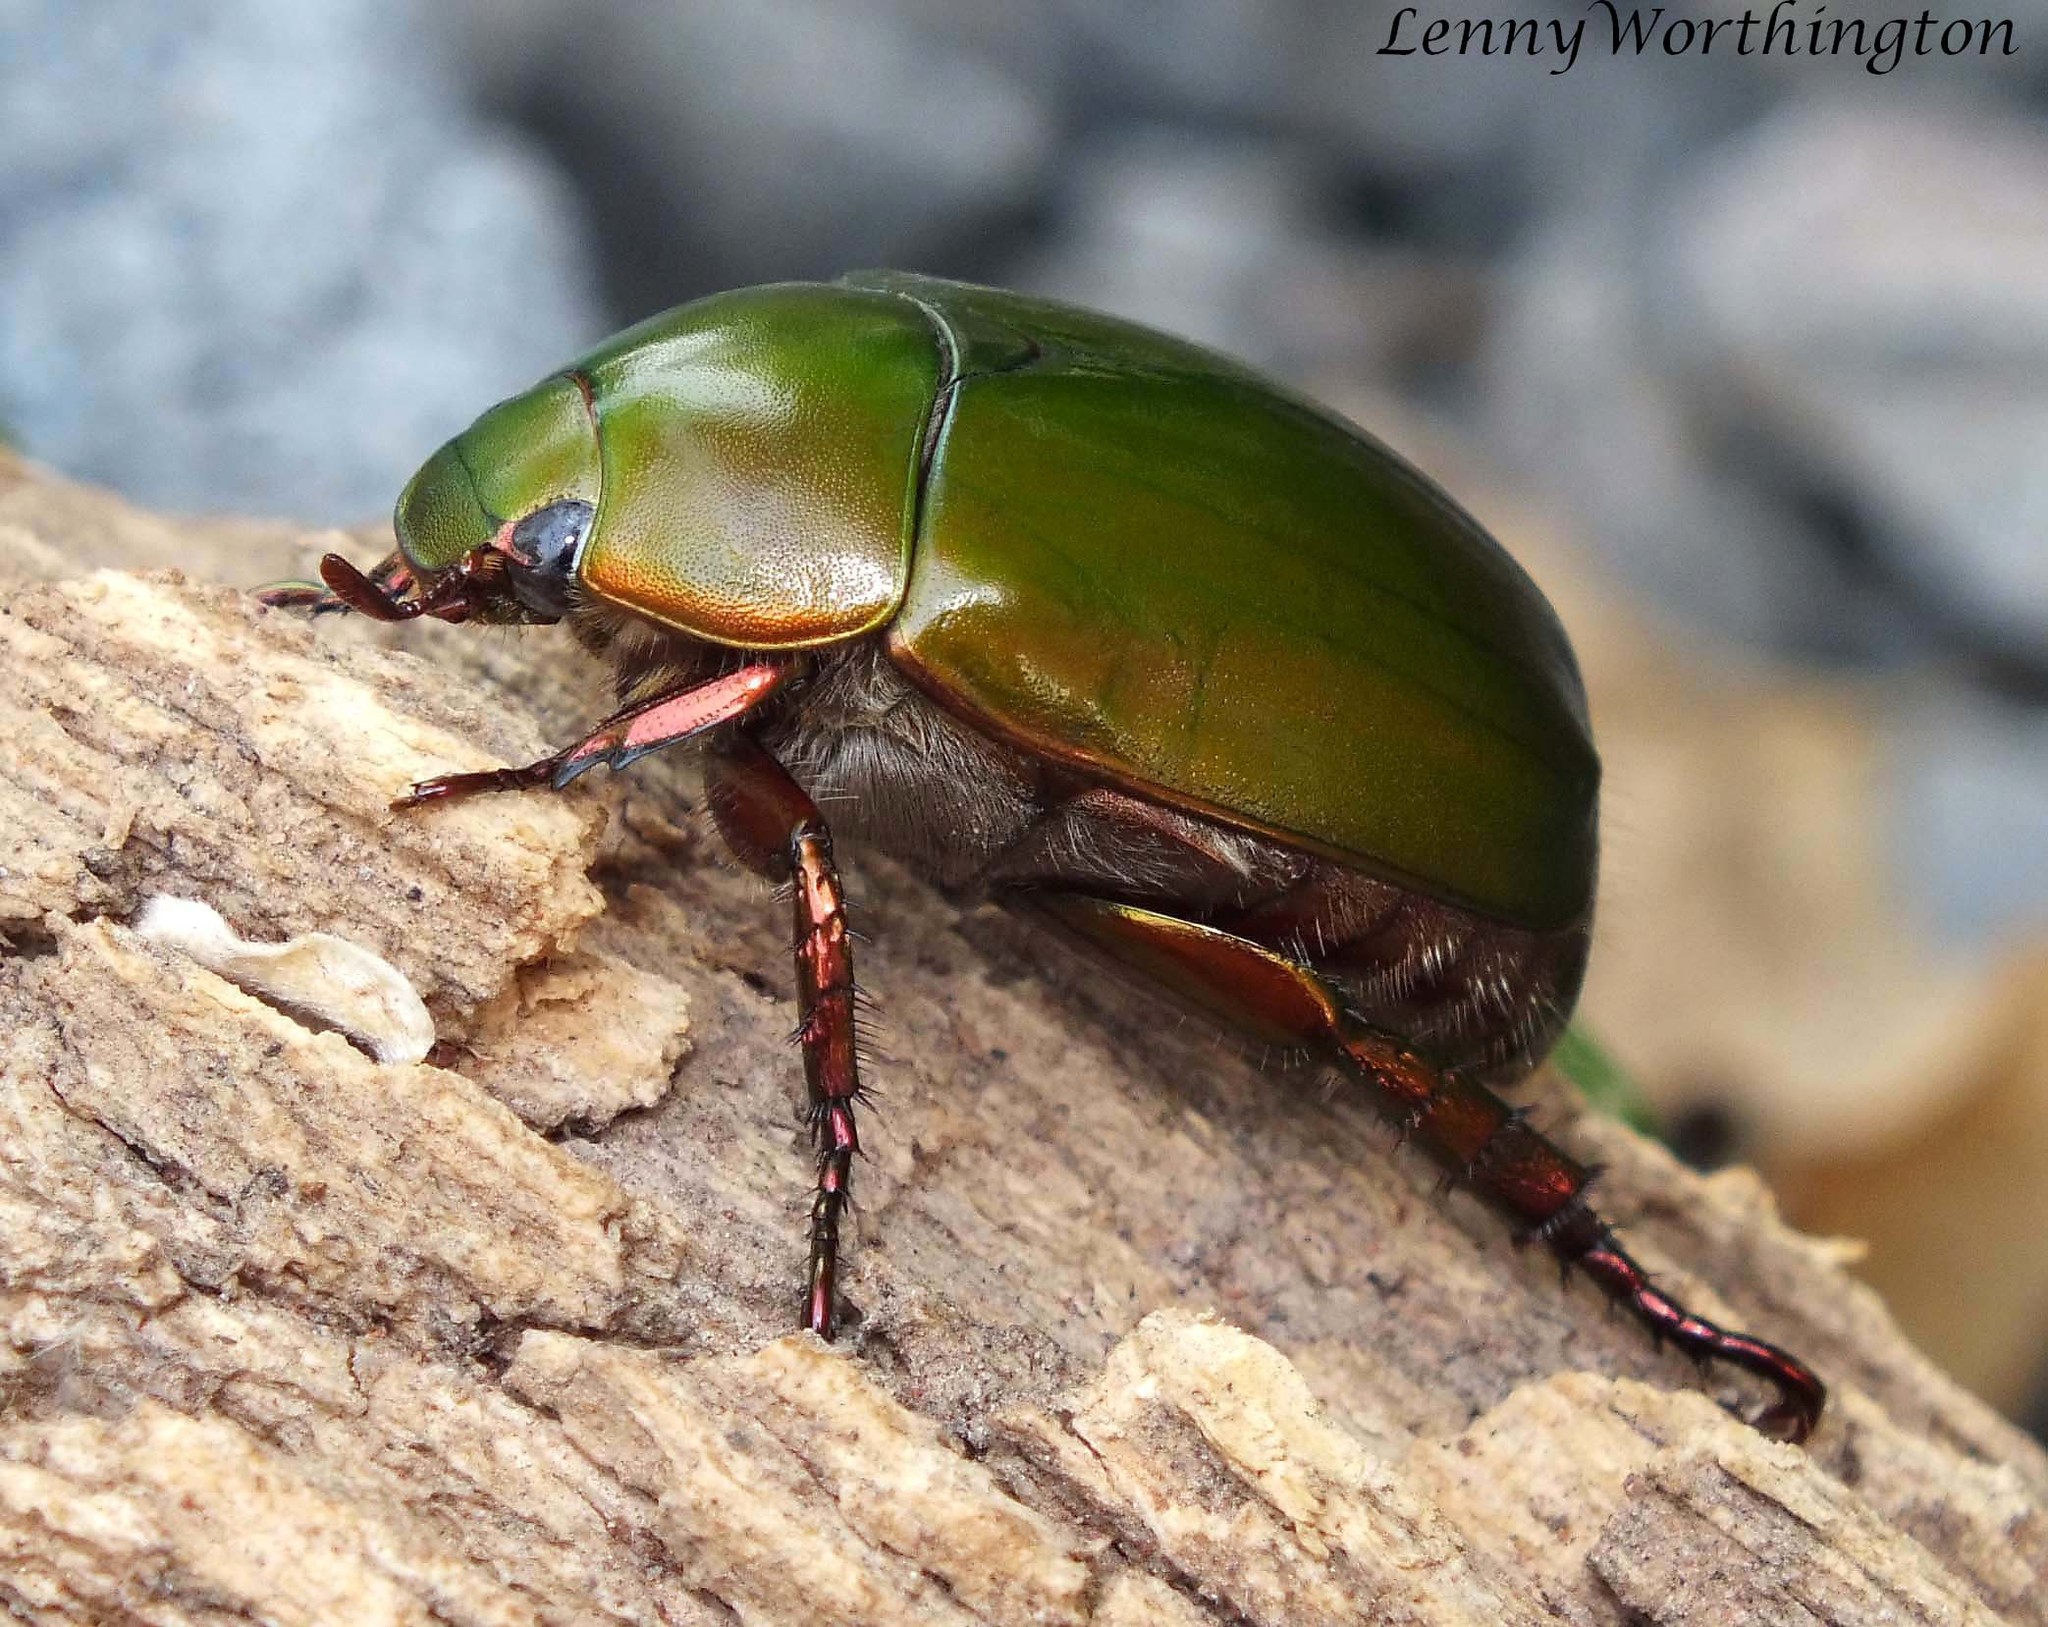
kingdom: Animalia
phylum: Arthropoda
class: Insecta
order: Coleoptera
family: Scarabaeidae
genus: Anomala
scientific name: Anomala cupripes
